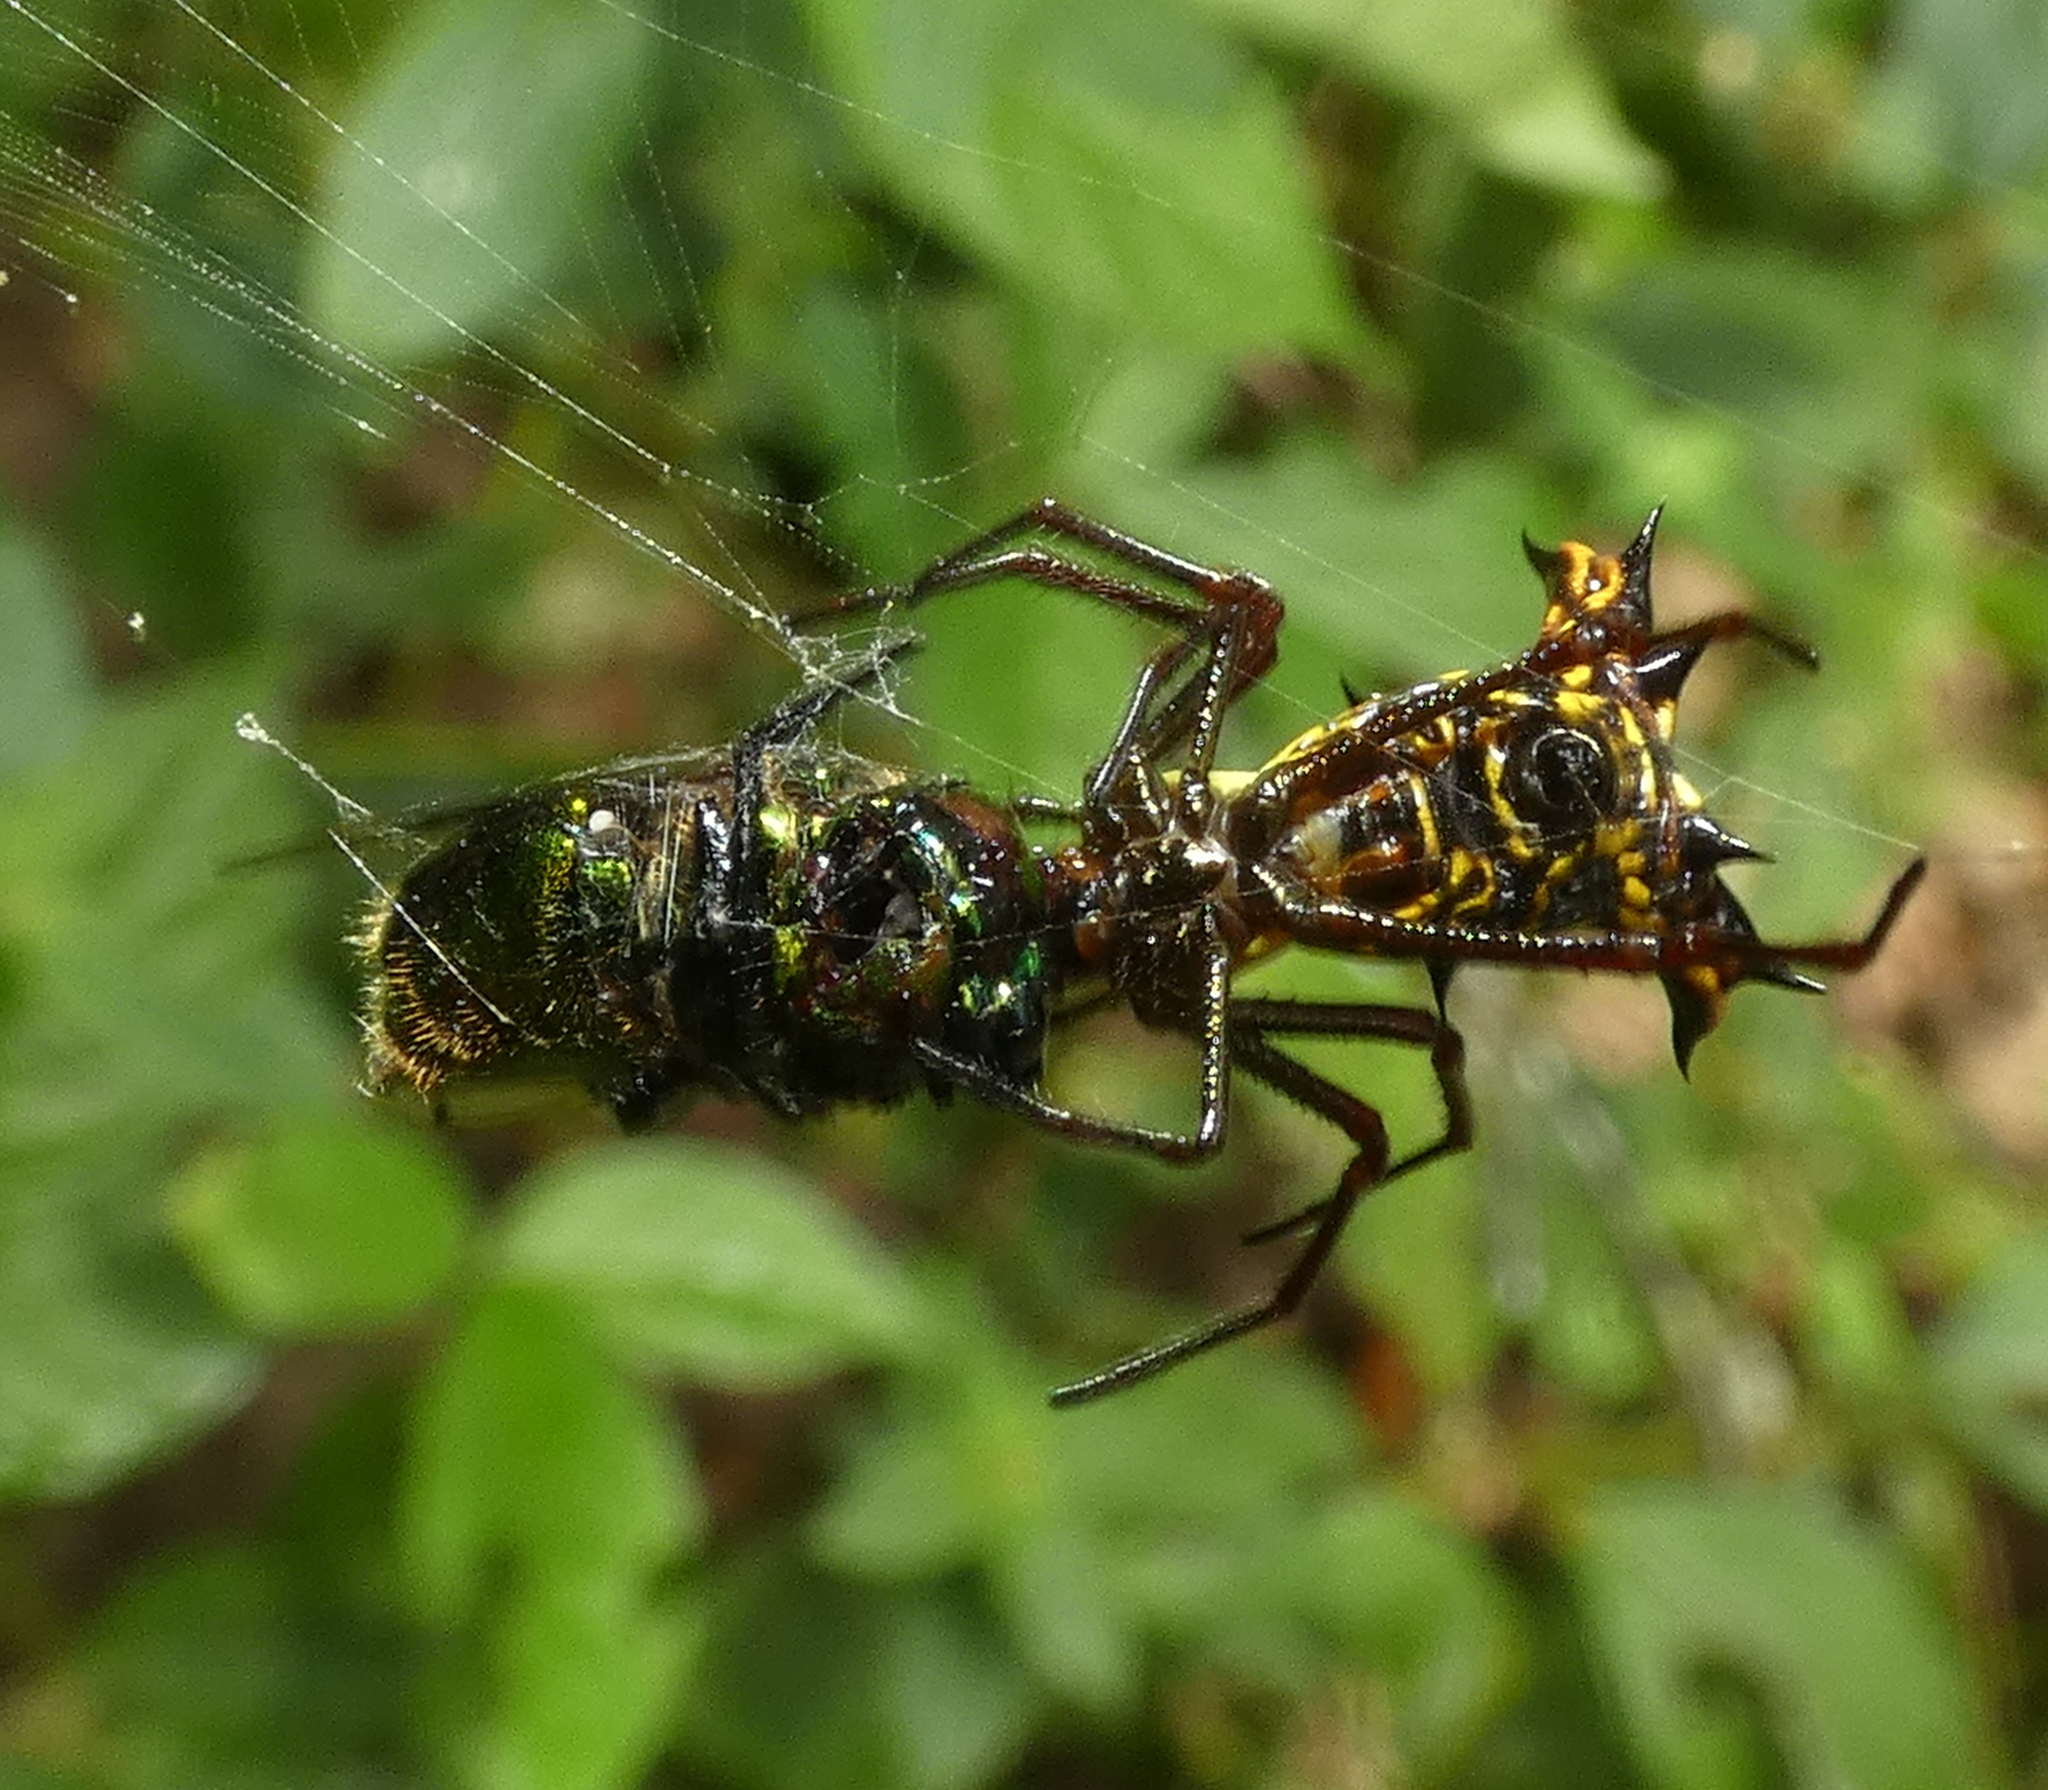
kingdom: Animalia
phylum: Arthropoda
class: Arachnida
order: Araneae
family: Araneidae
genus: Micrathena
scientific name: Micrathena fissispina
